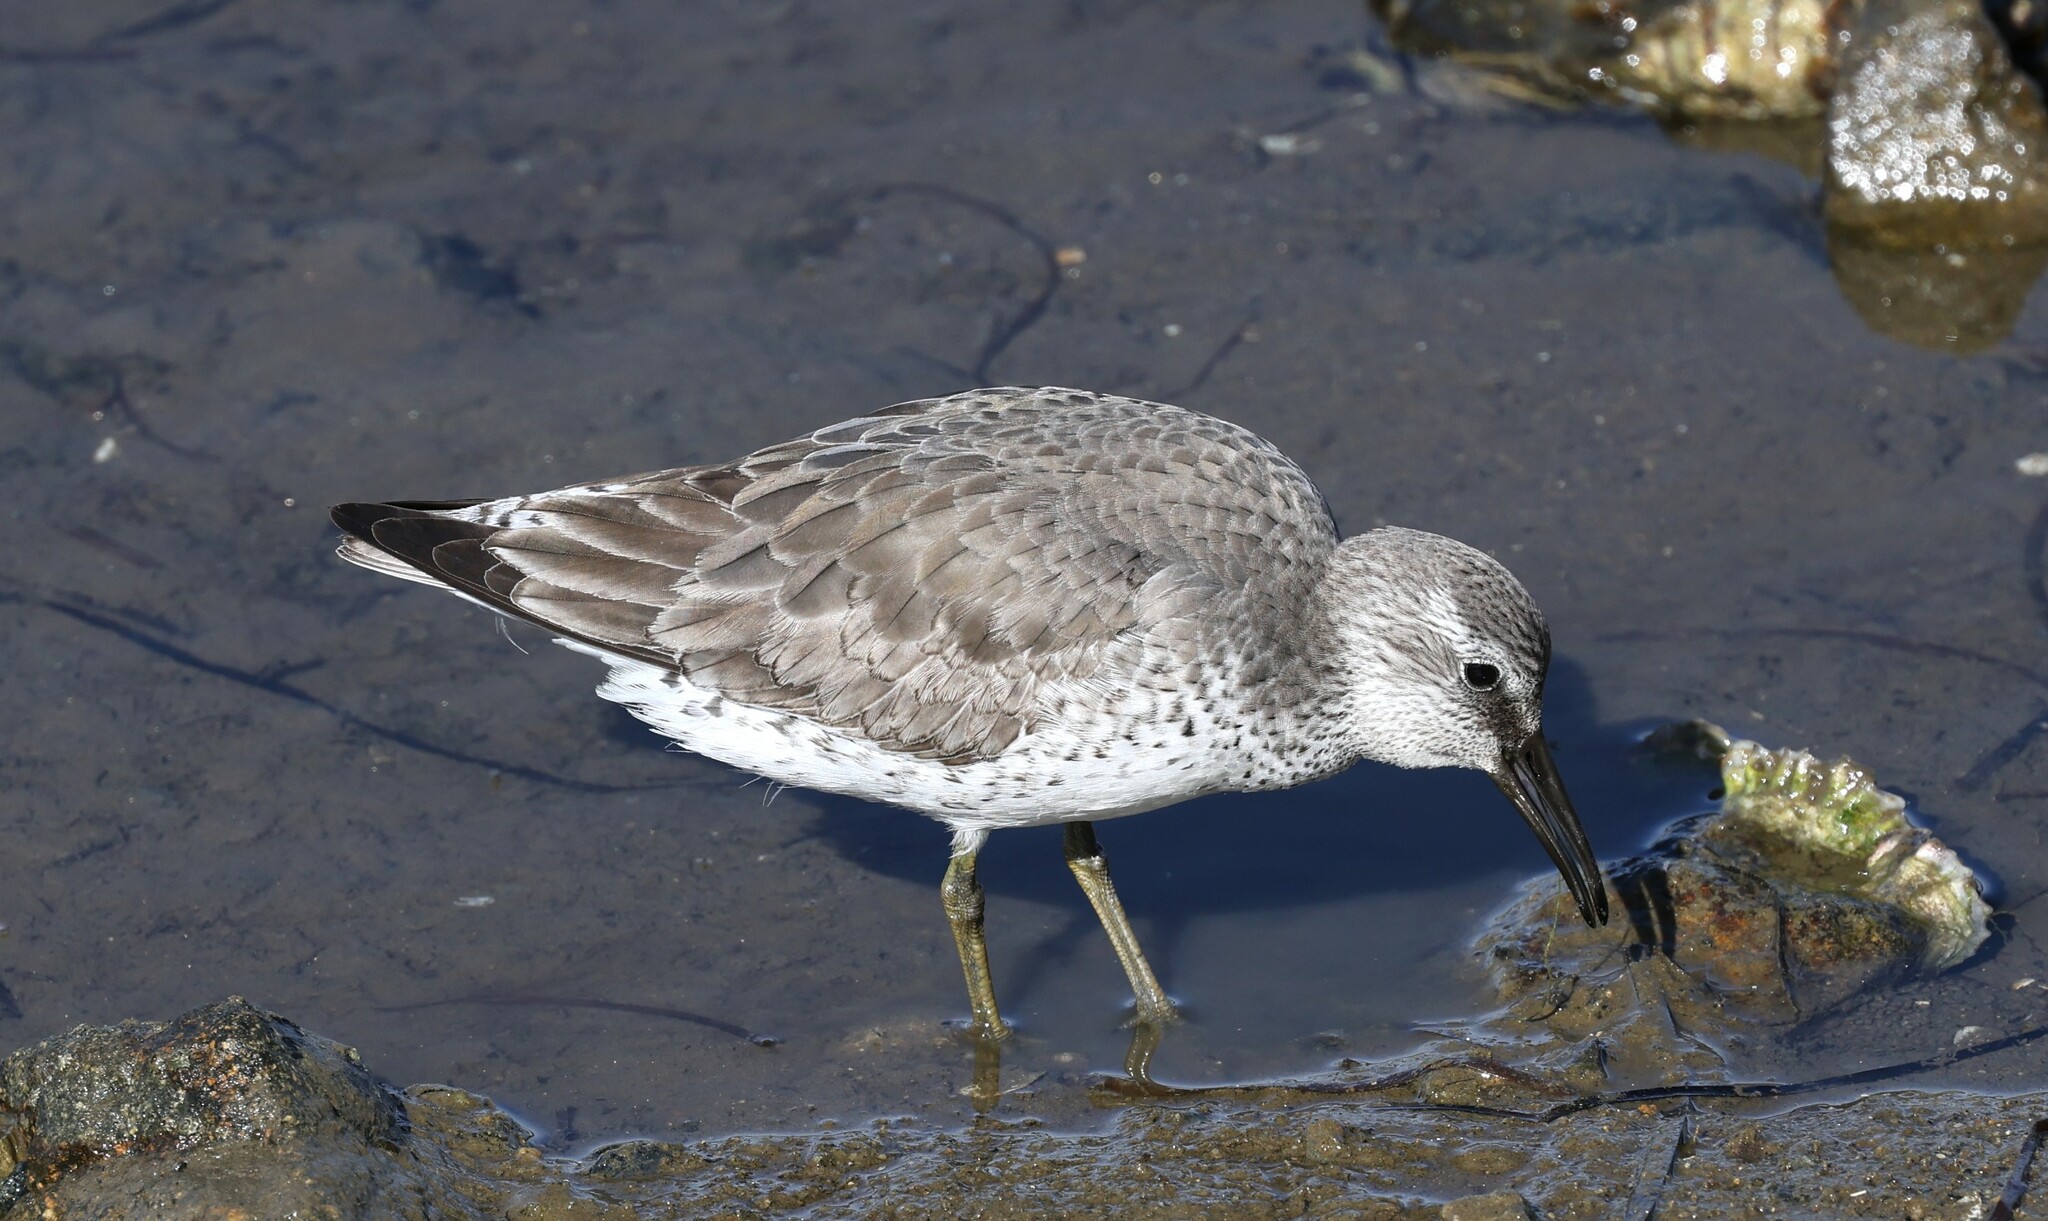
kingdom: Animalia
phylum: Chordata
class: Aves
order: Charadriiformes
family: Scolopacidae
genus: Calidris
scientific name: Calidris canutus
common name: Red knot
